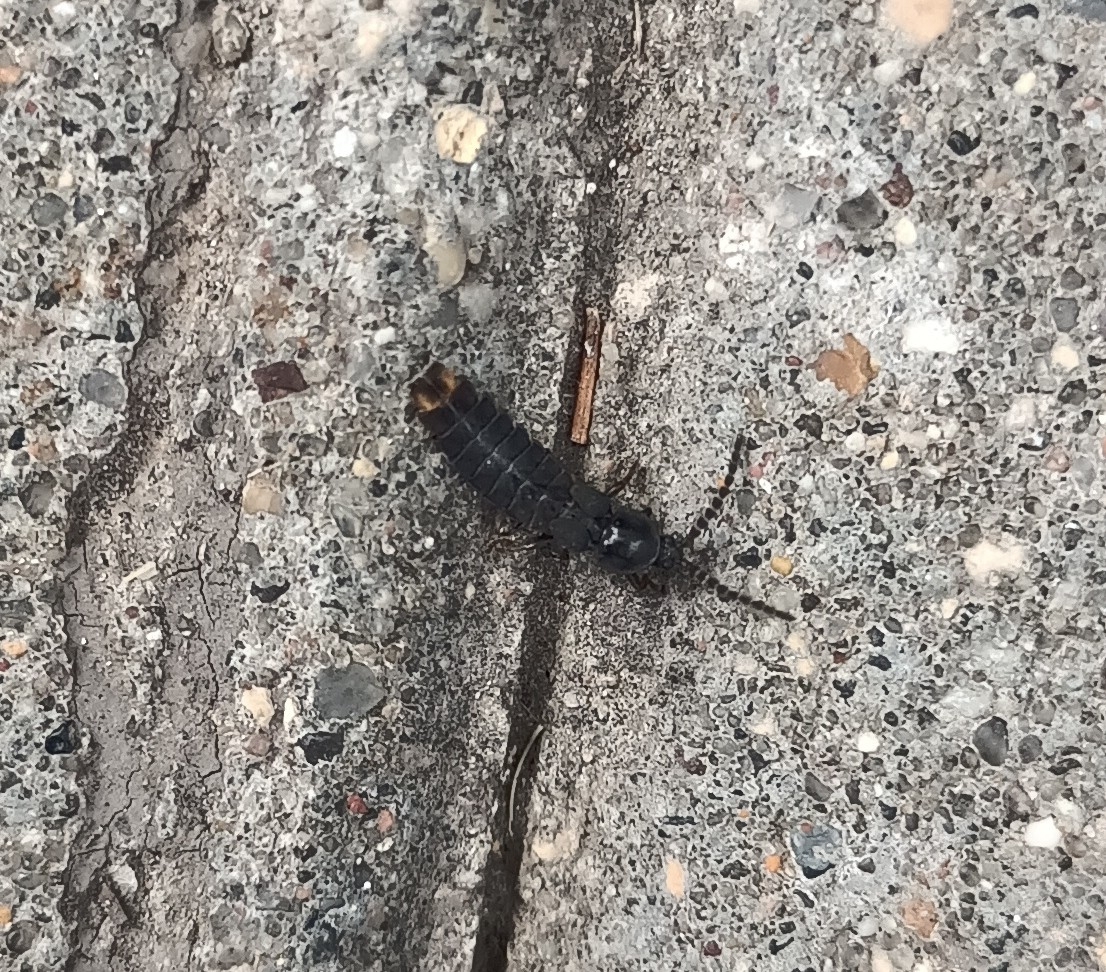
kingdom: Animalia
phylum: Arthropoda
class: Insecta
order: Coleoptera
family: Lampyridae
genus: Phosphaenus
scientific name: Phosphaenus hemipterus
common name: Short-winged firefly
